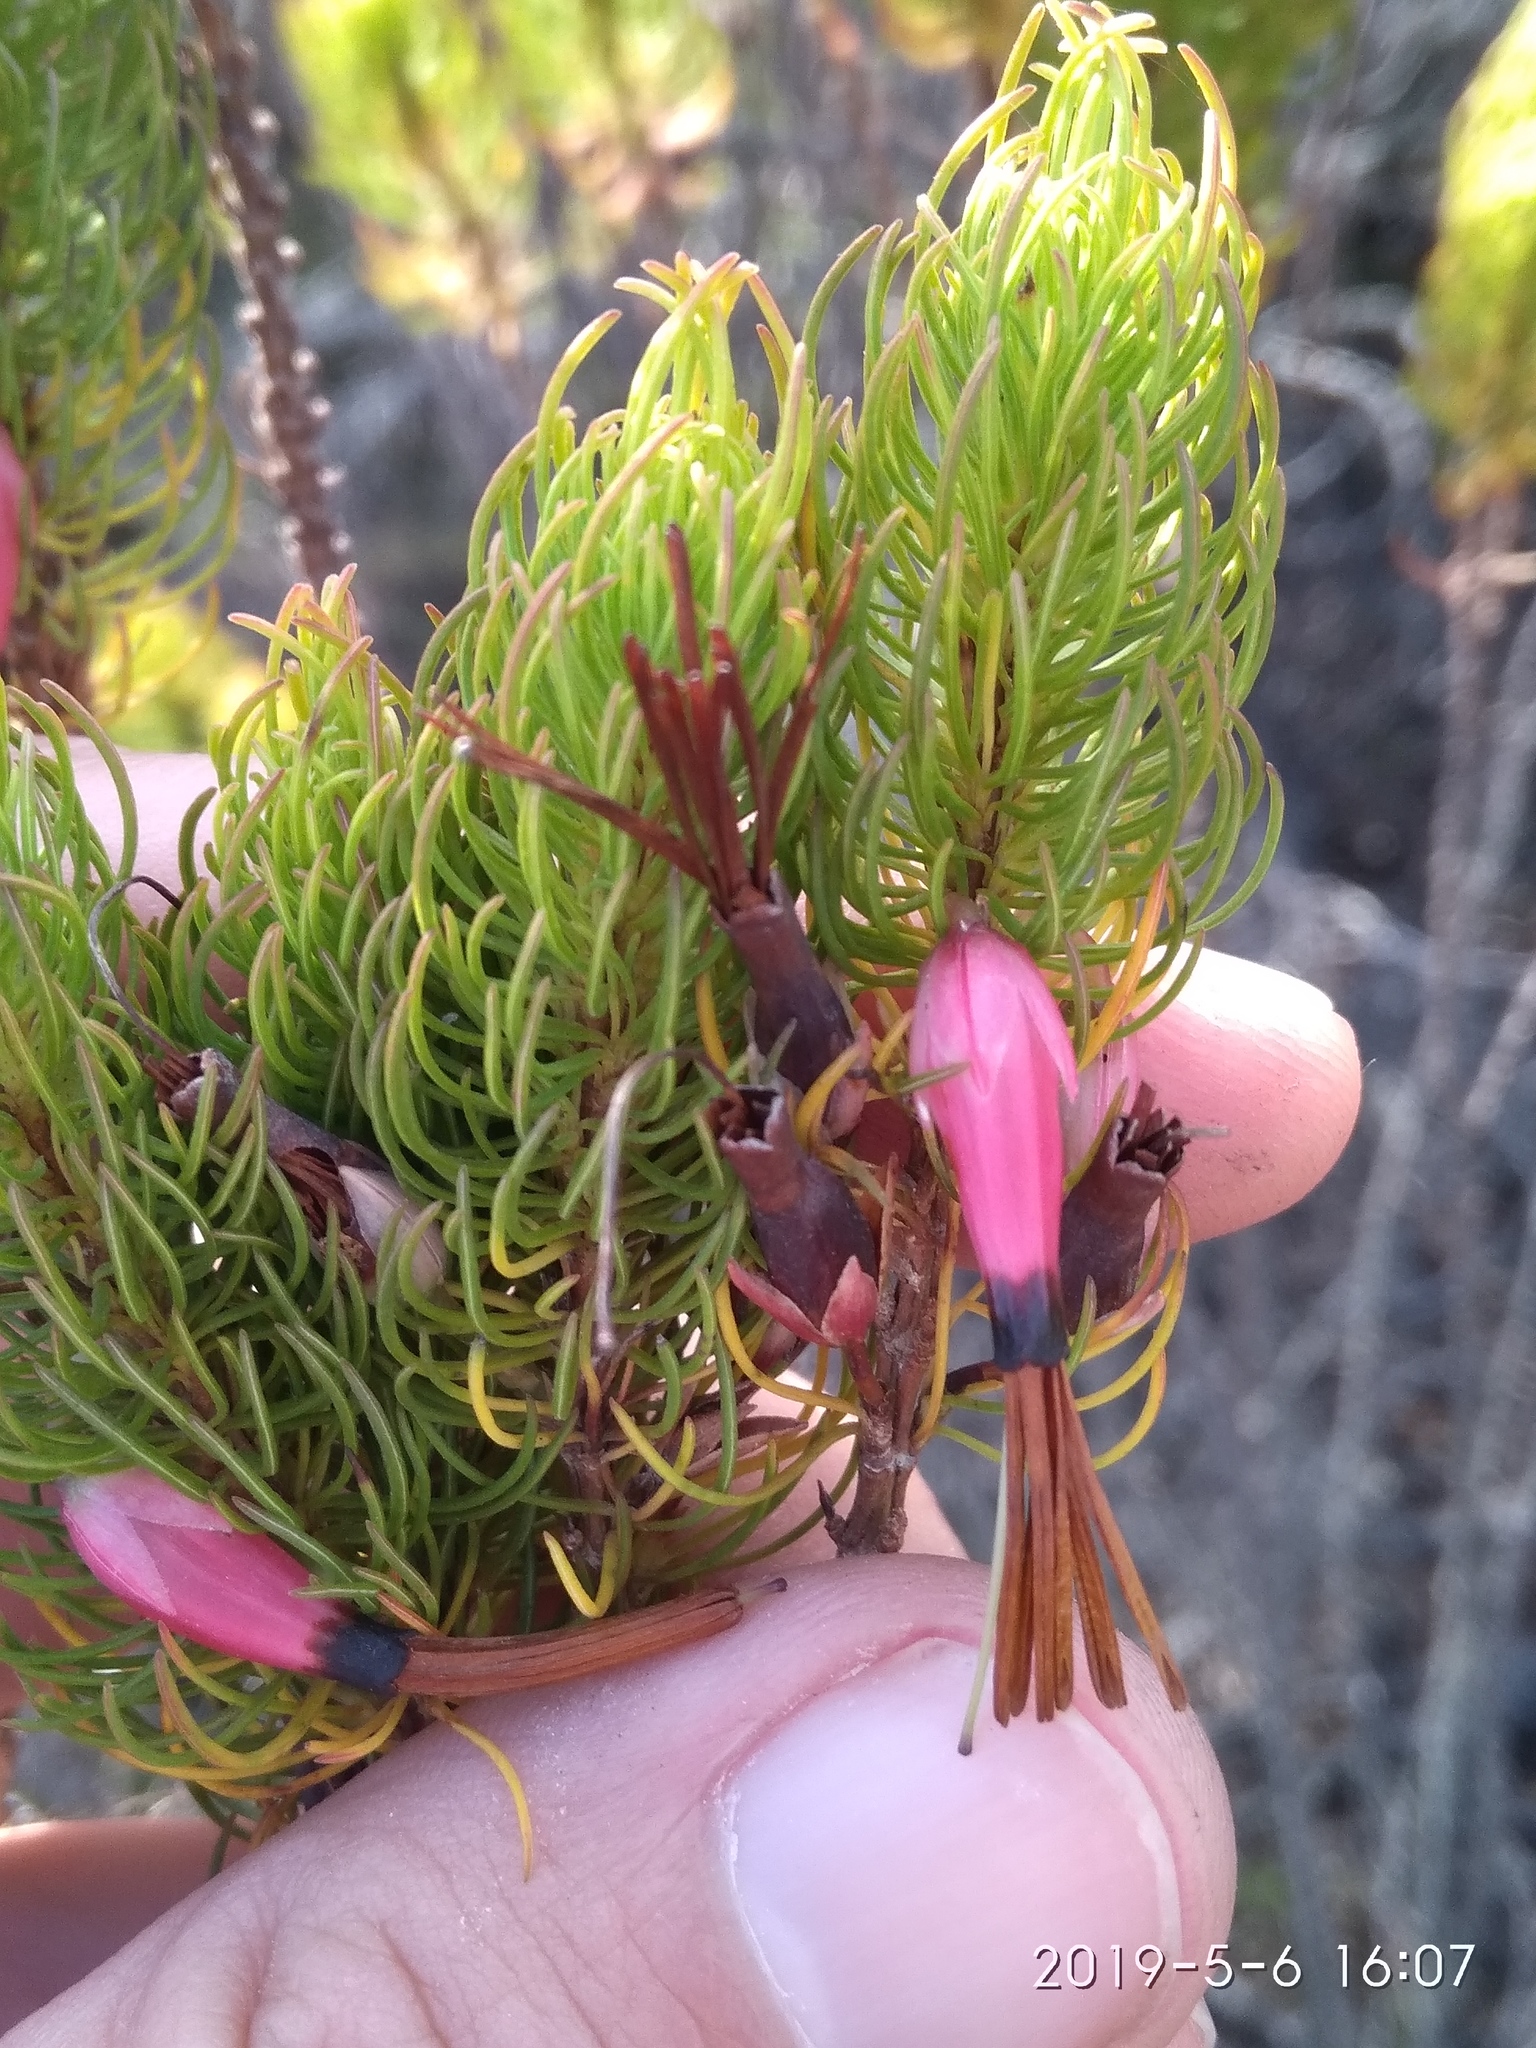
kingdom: Plantae
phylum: Tracheophyta
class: Magnoliopsida
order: Ericales
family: Ericaceae
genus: Erica
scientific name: Erica plukenetii
